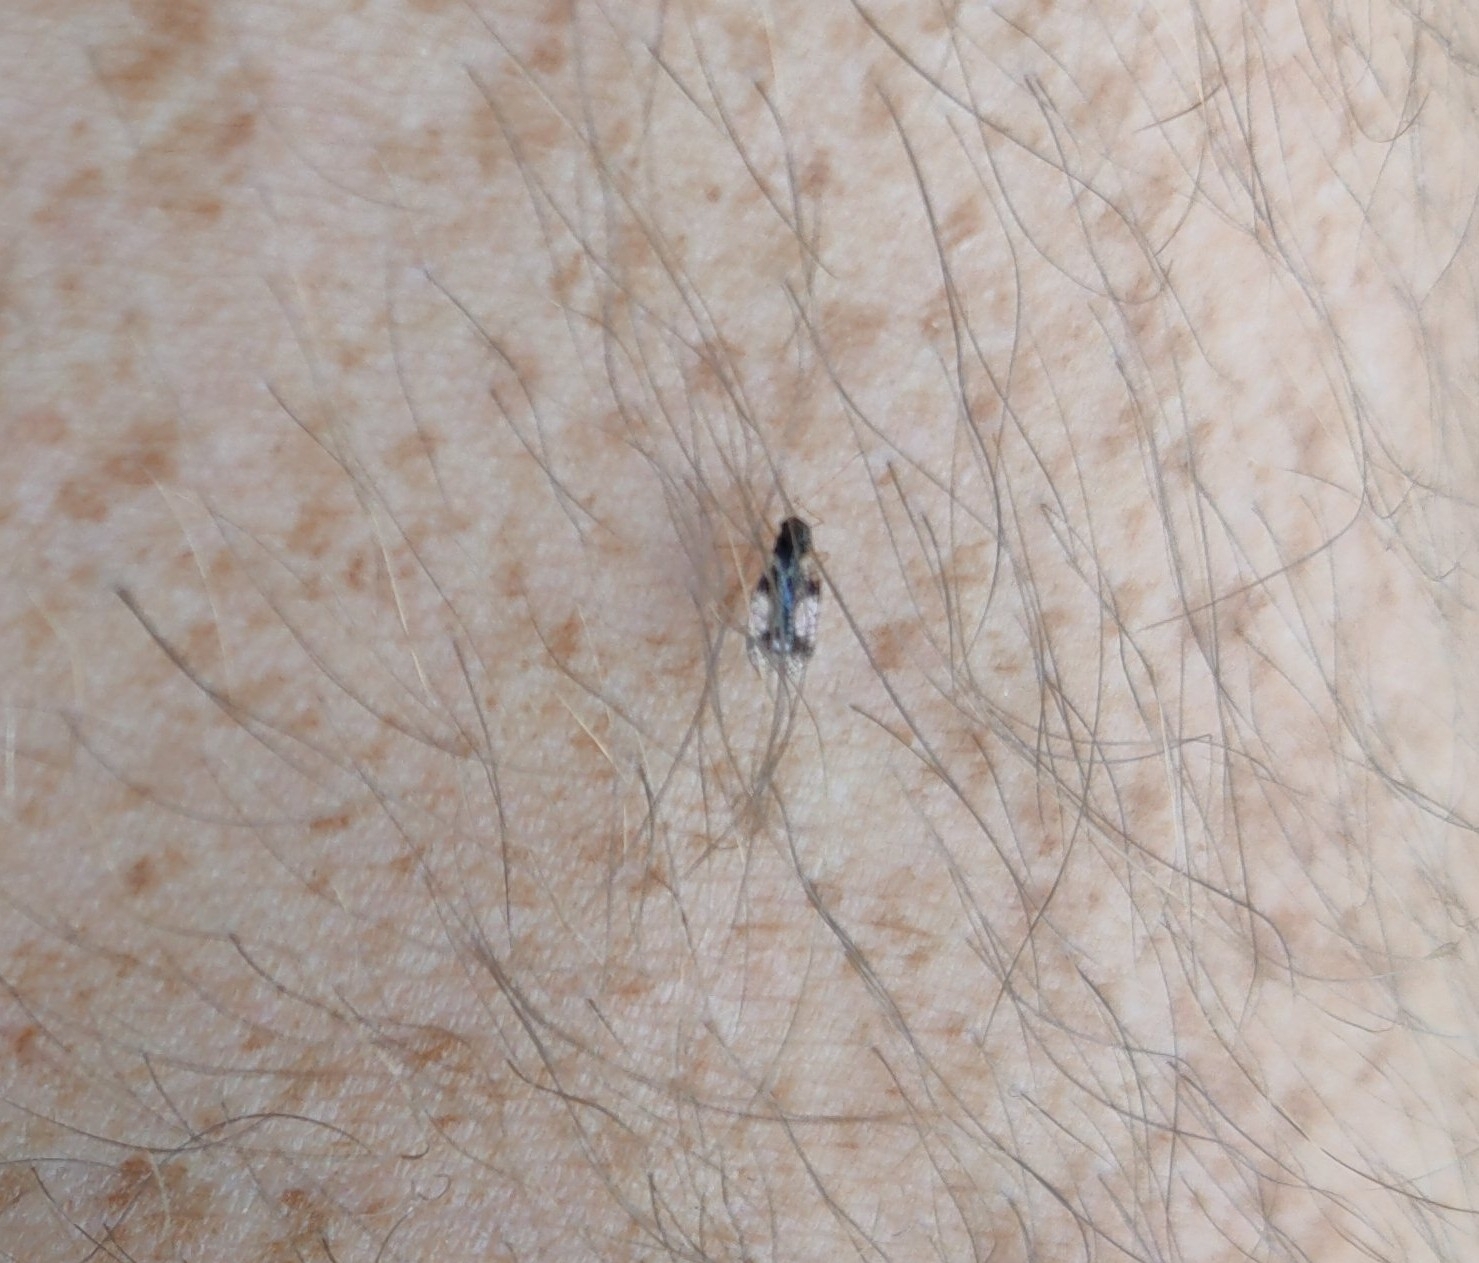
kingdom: Animalia
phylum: Arthropoda
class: Insecta
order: Hemiptera
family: Tingidae
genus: Stephanitis
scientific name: Stephanitis takeyai
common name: Andromeda lacebug
